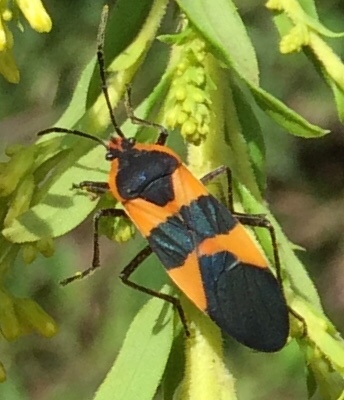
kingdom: Animalia
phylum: Arthropoda
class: Insecta
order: Hemiptera
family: Lygaeidae
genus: Oncopeltus
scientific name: Oncopeltus fasciatus
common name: Large milkweed bug
